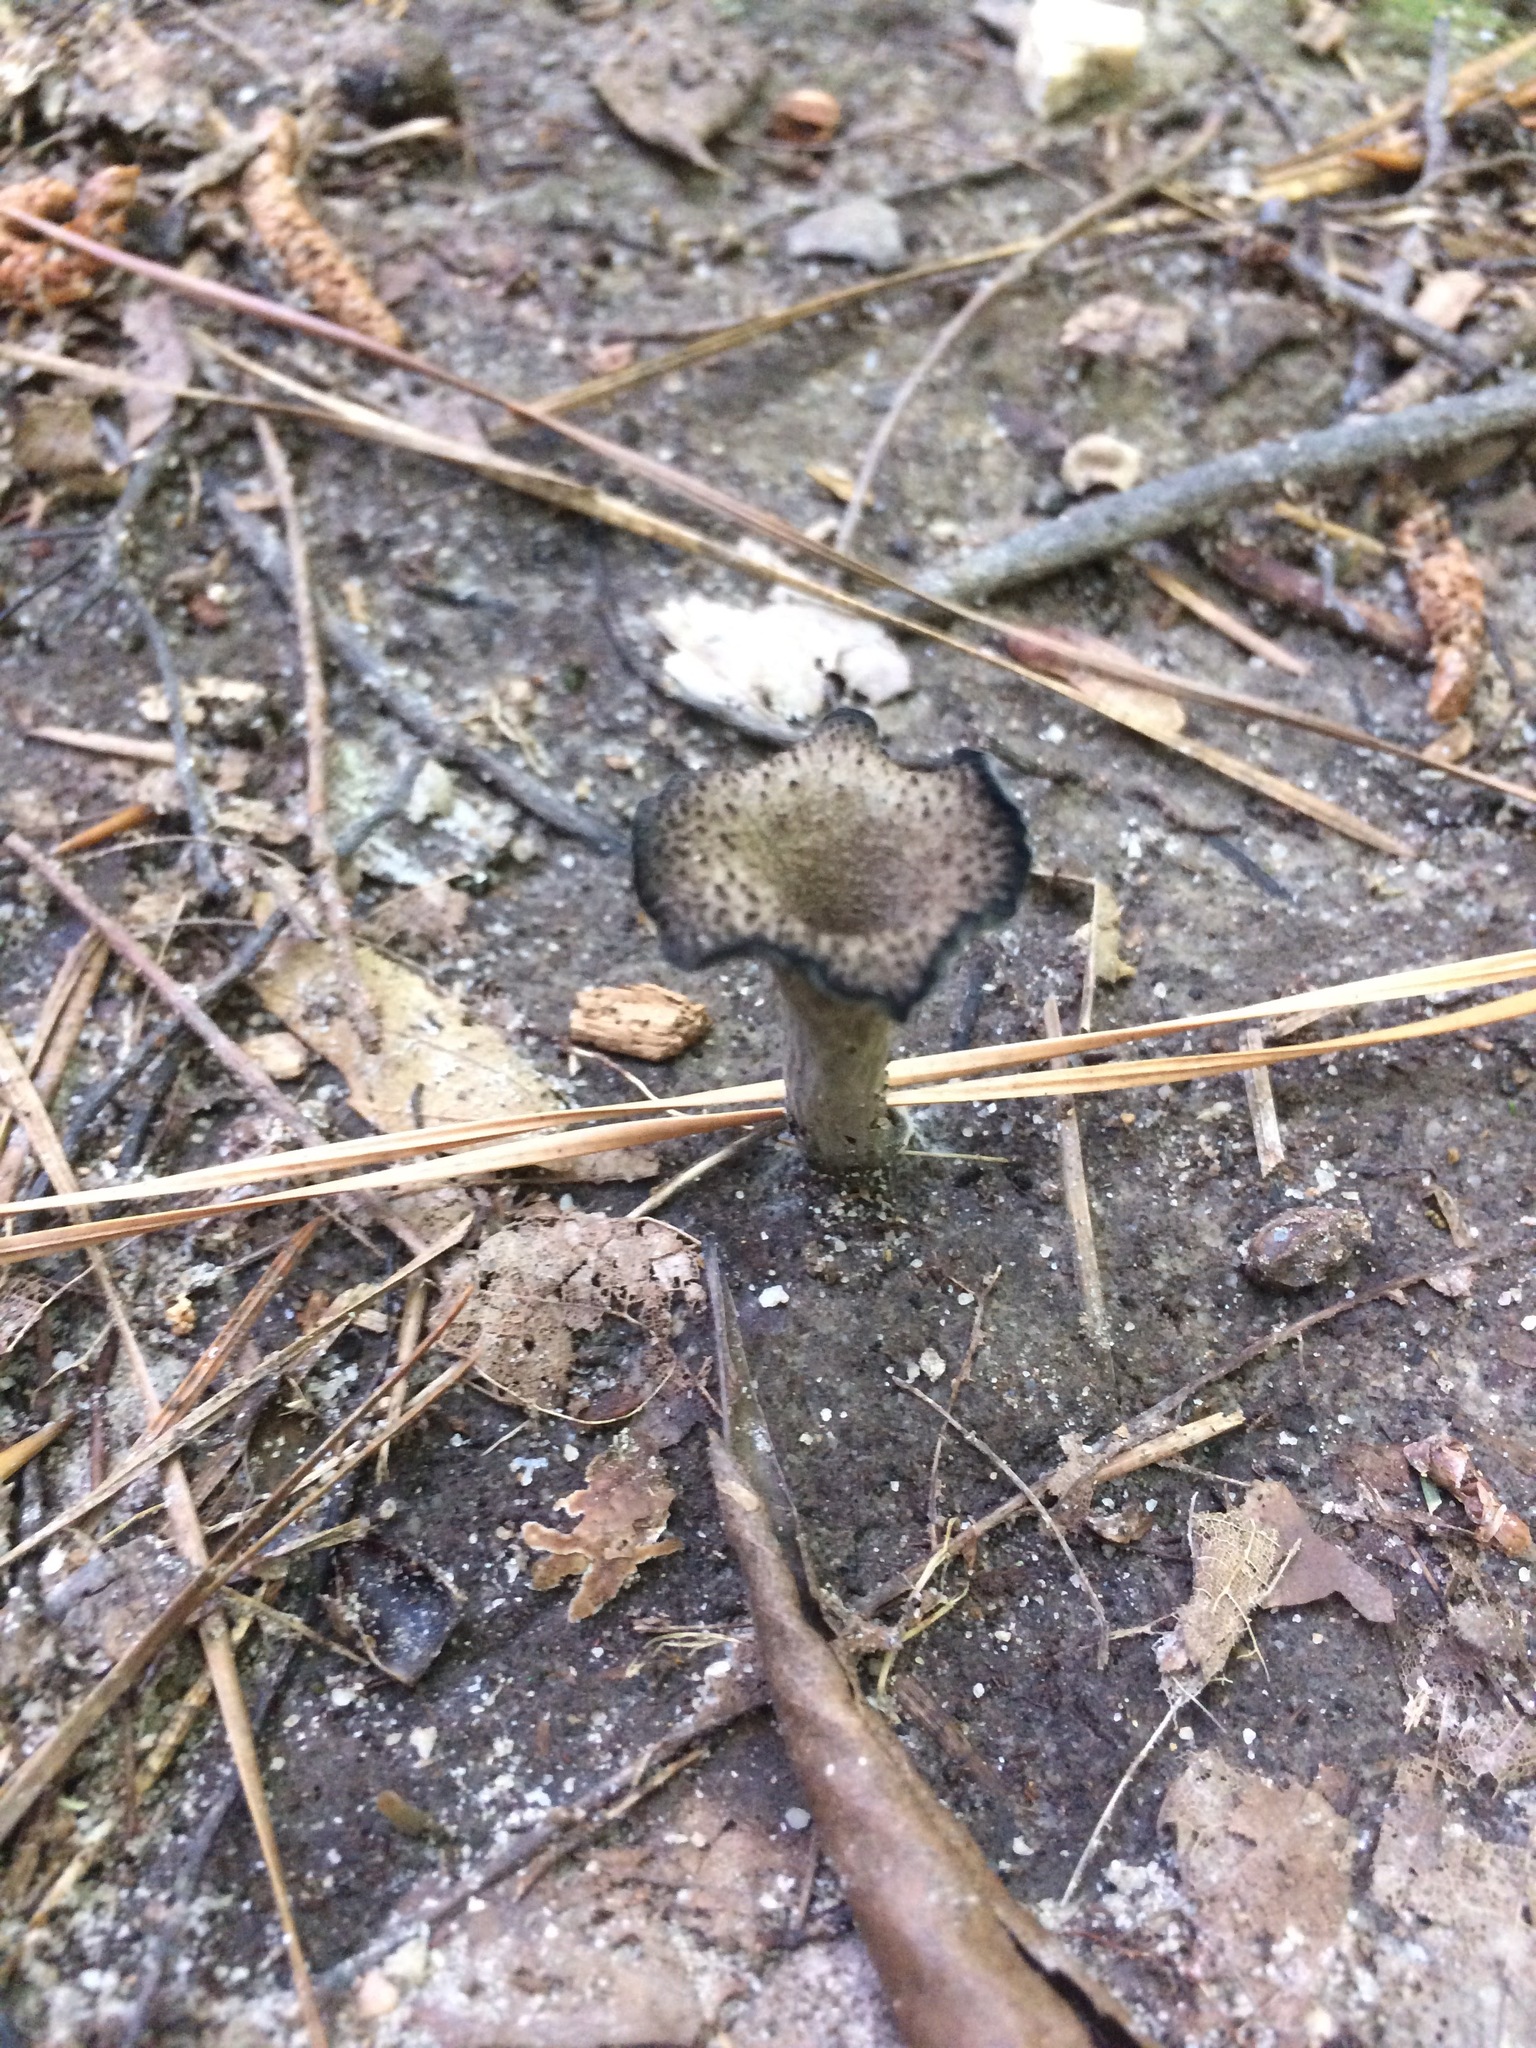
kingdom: Fungi
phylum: Basidiomycota
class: Agaricomycetes
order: Cantharellales
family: Hydnaceae
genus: Craterellus
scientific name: Craterellus cornucopioides
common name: Horn of plenty
